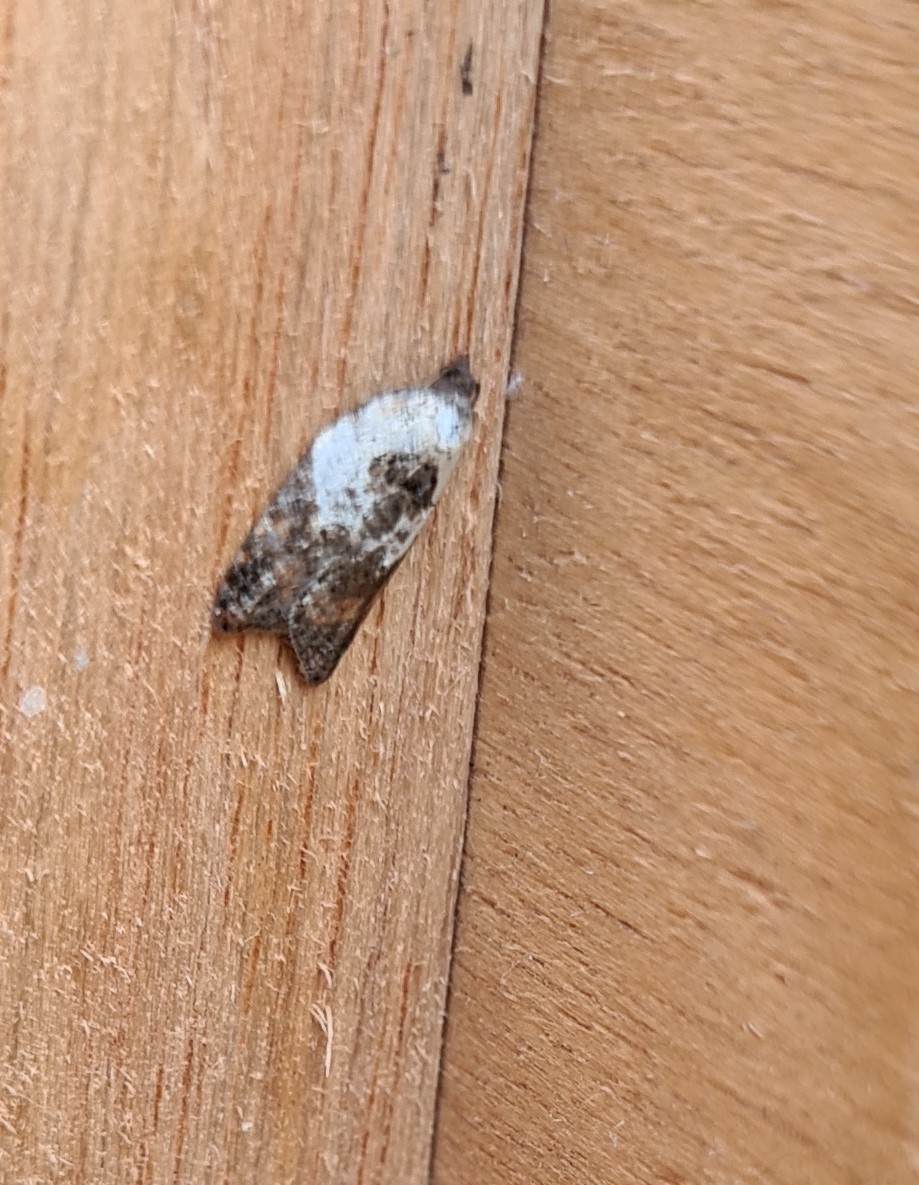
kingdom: Animalia
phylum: Arthropoda
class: Insecta
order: Lepidoptera
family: Tortricidae
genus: Acleris
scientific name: Acleris variegana
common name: Garden rose tortrix
